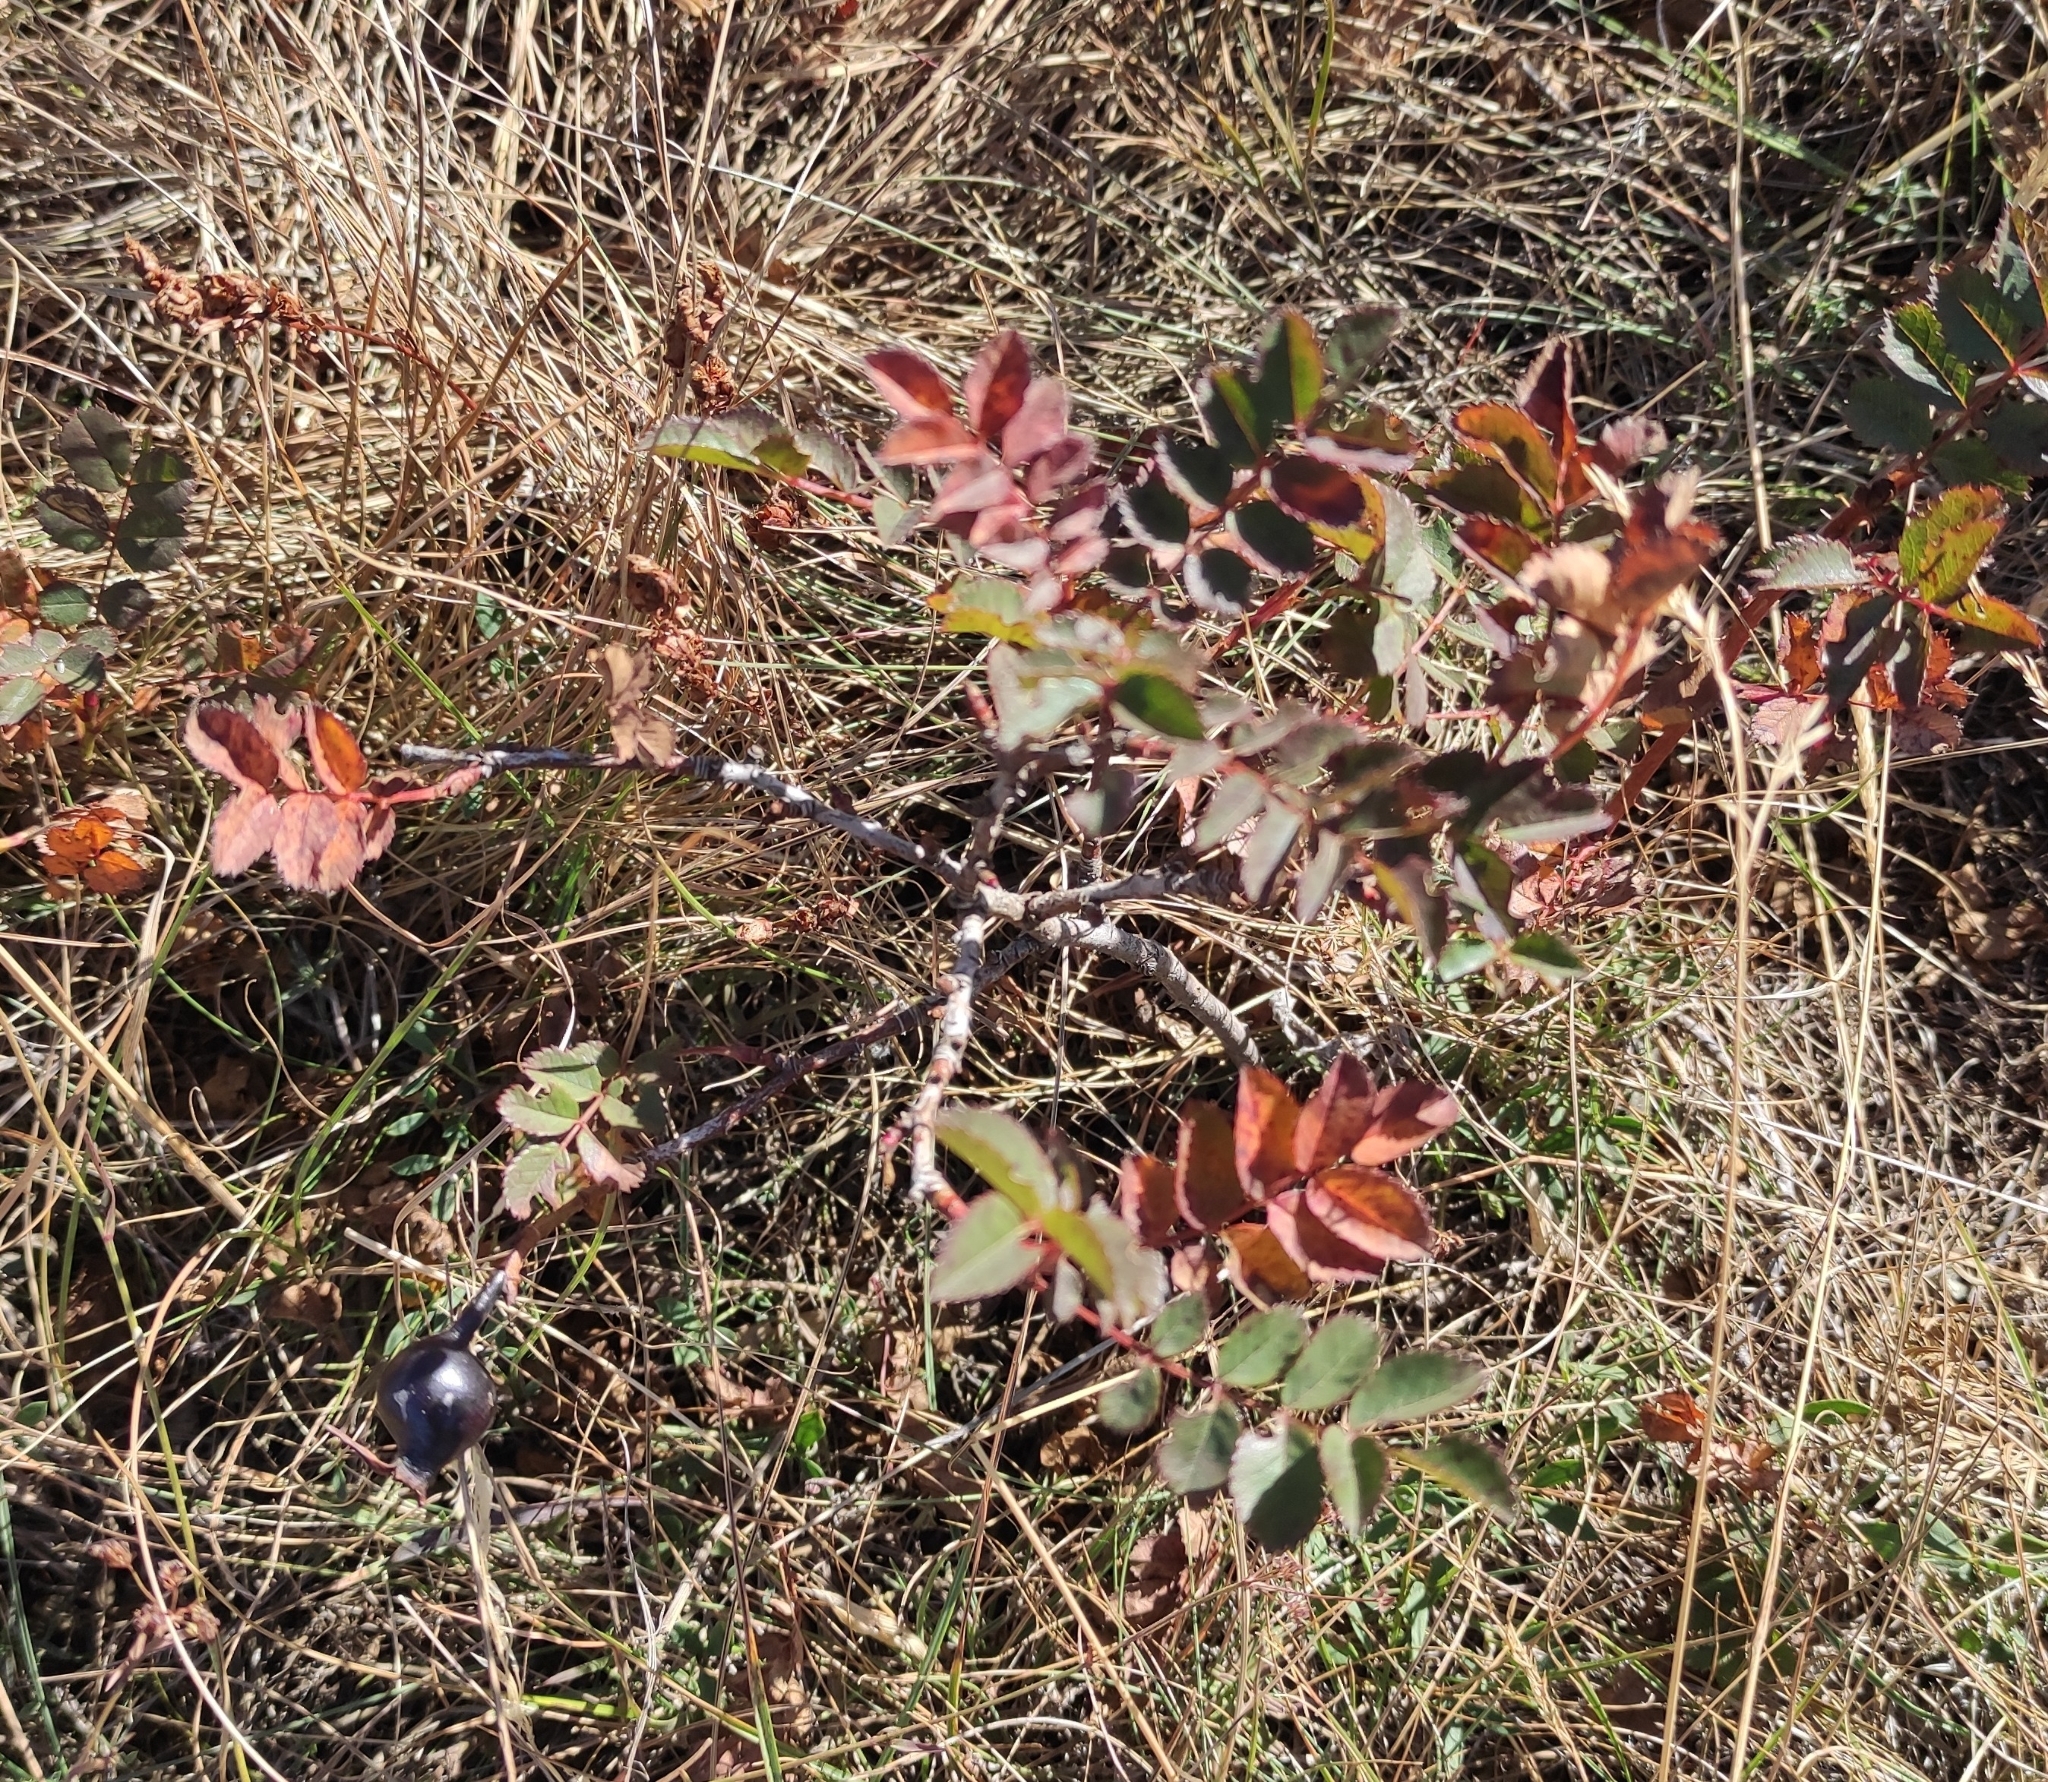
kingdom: Plantae
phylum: Tracheophyta
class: Magnoliopsida
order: Rosales
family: Rosaceae
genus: Rosa
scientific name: Rosa spinosissima
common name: Burnet rose
